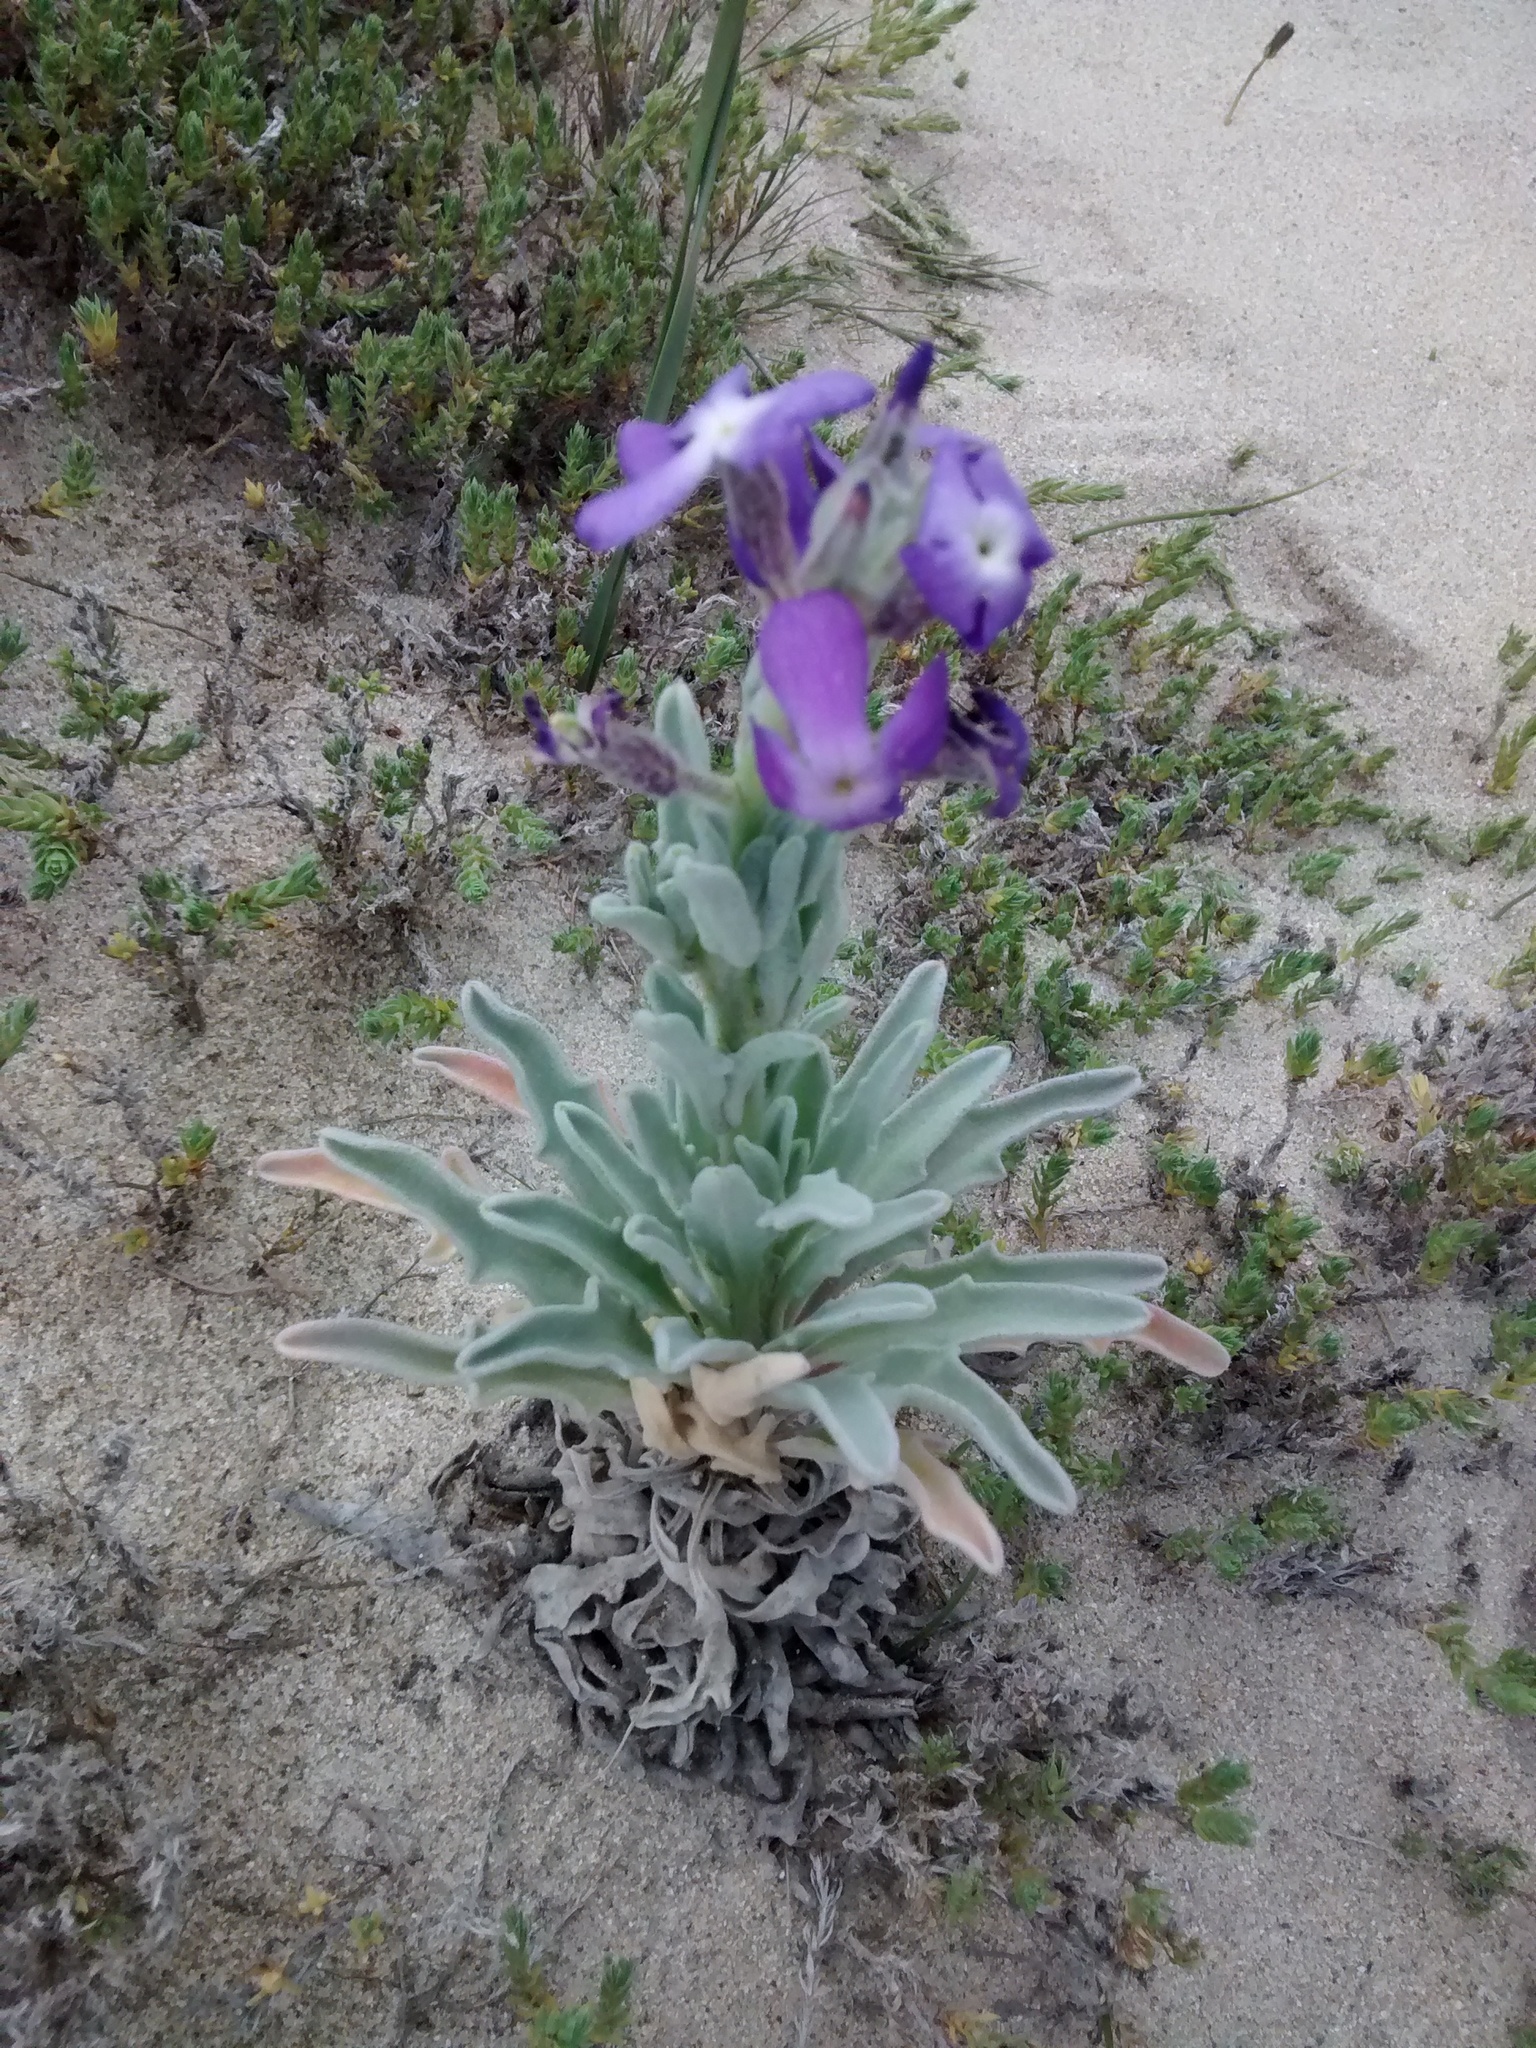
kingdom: Plantae
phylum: Tracheophyta
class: Magnoliopsida
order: Brassicales
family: Brassicaceae
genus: Matthiola
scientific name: Matthiola sinuata
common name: Sea stock
